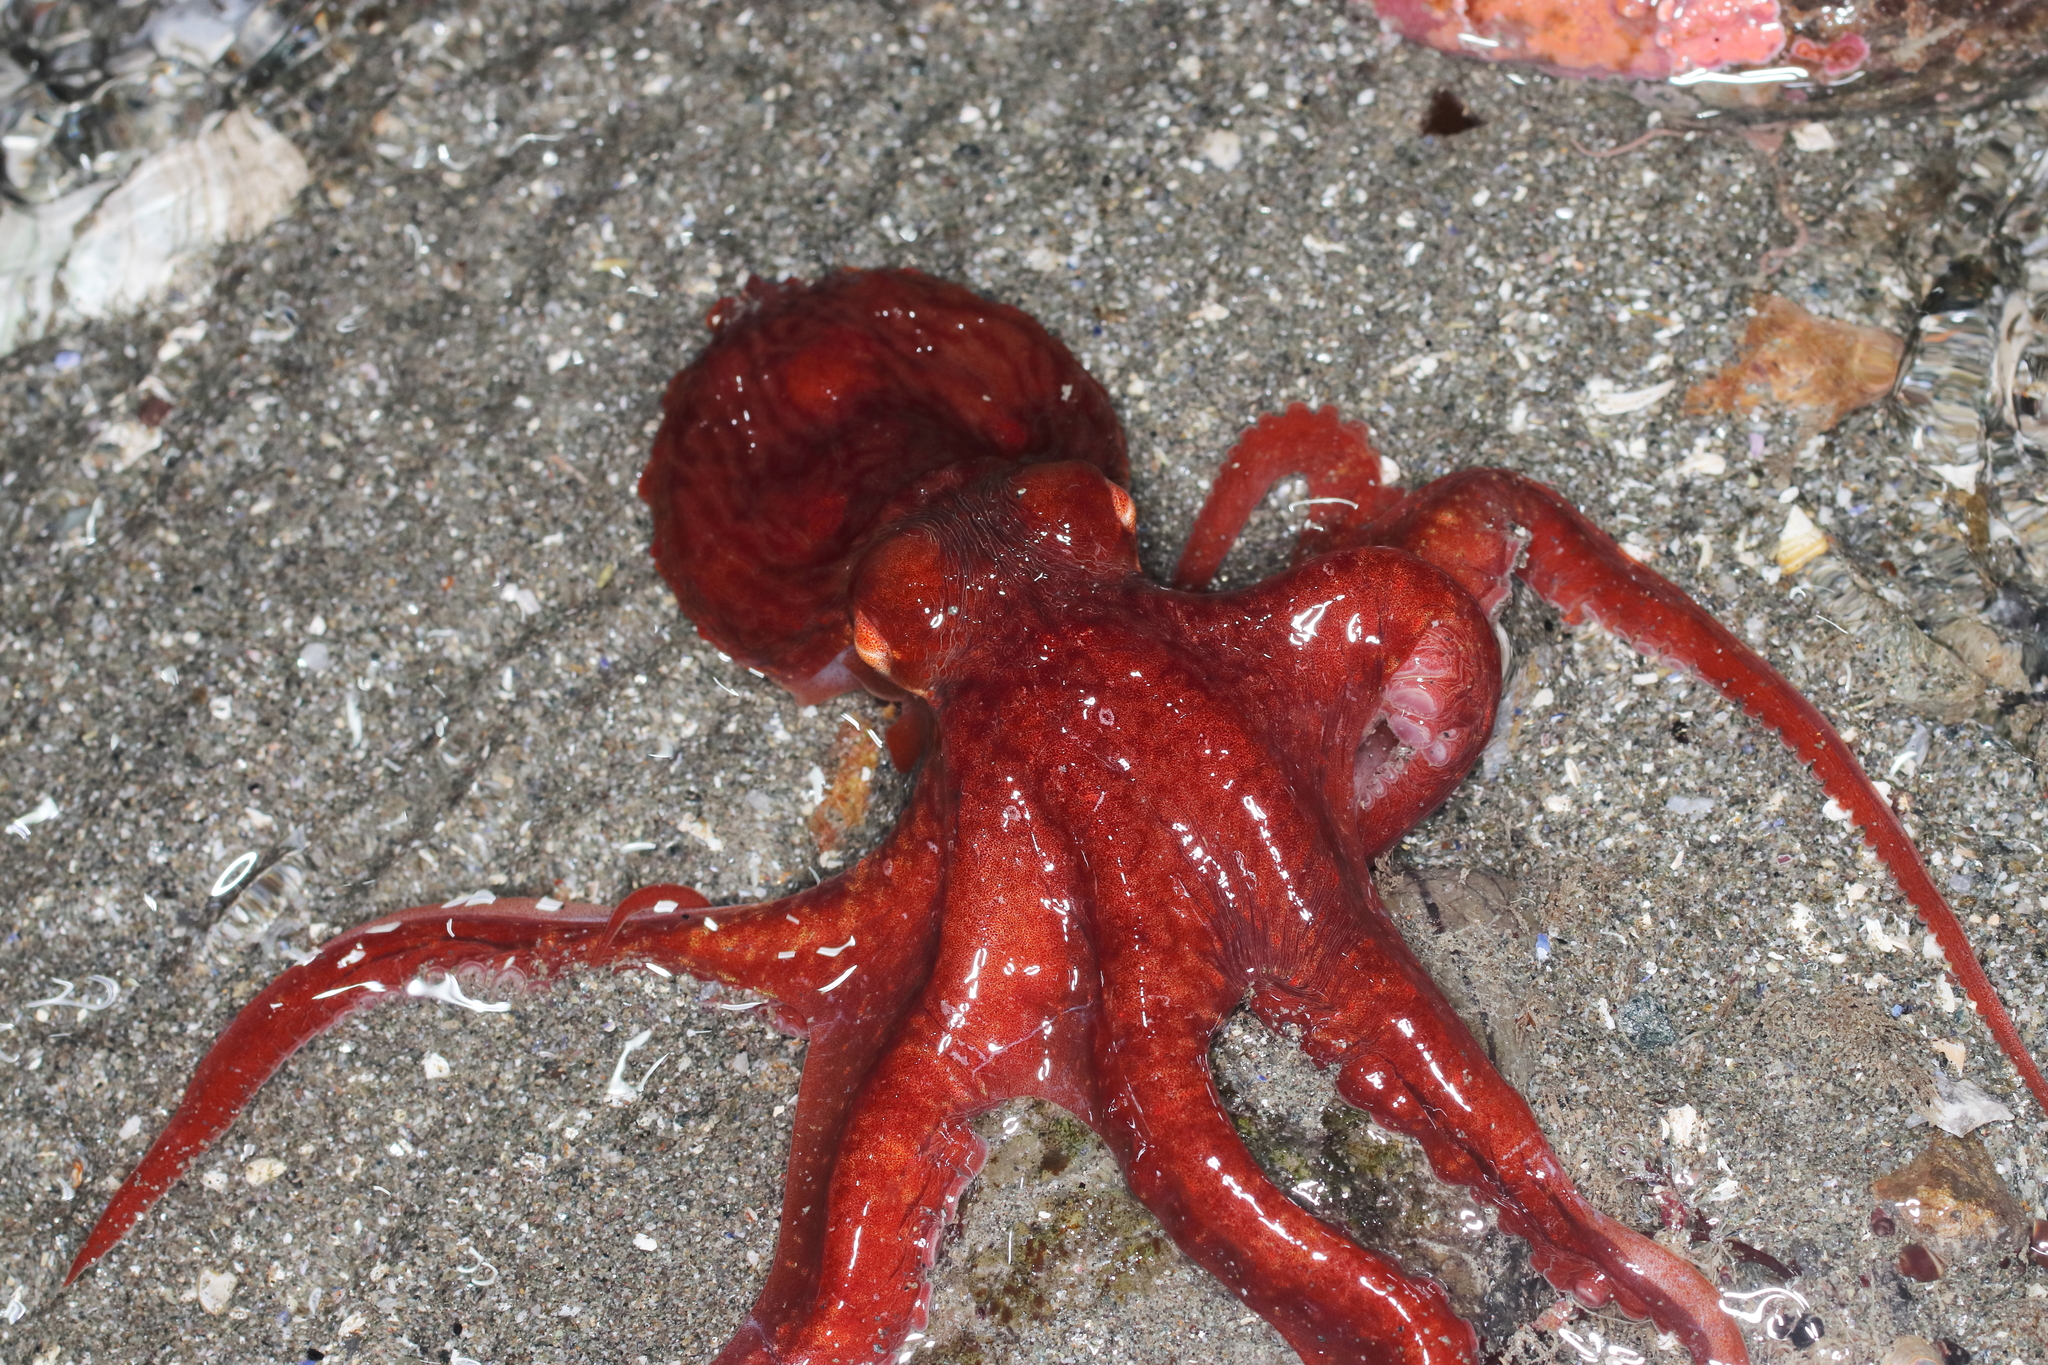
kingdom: Animalia
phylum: Mollusca
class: Cephalopoda
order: Octopoda
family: Enteroctopodidae
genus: Enteroctopus
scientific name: Enteroctopus dofleini
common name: Giant north pacific octopus
